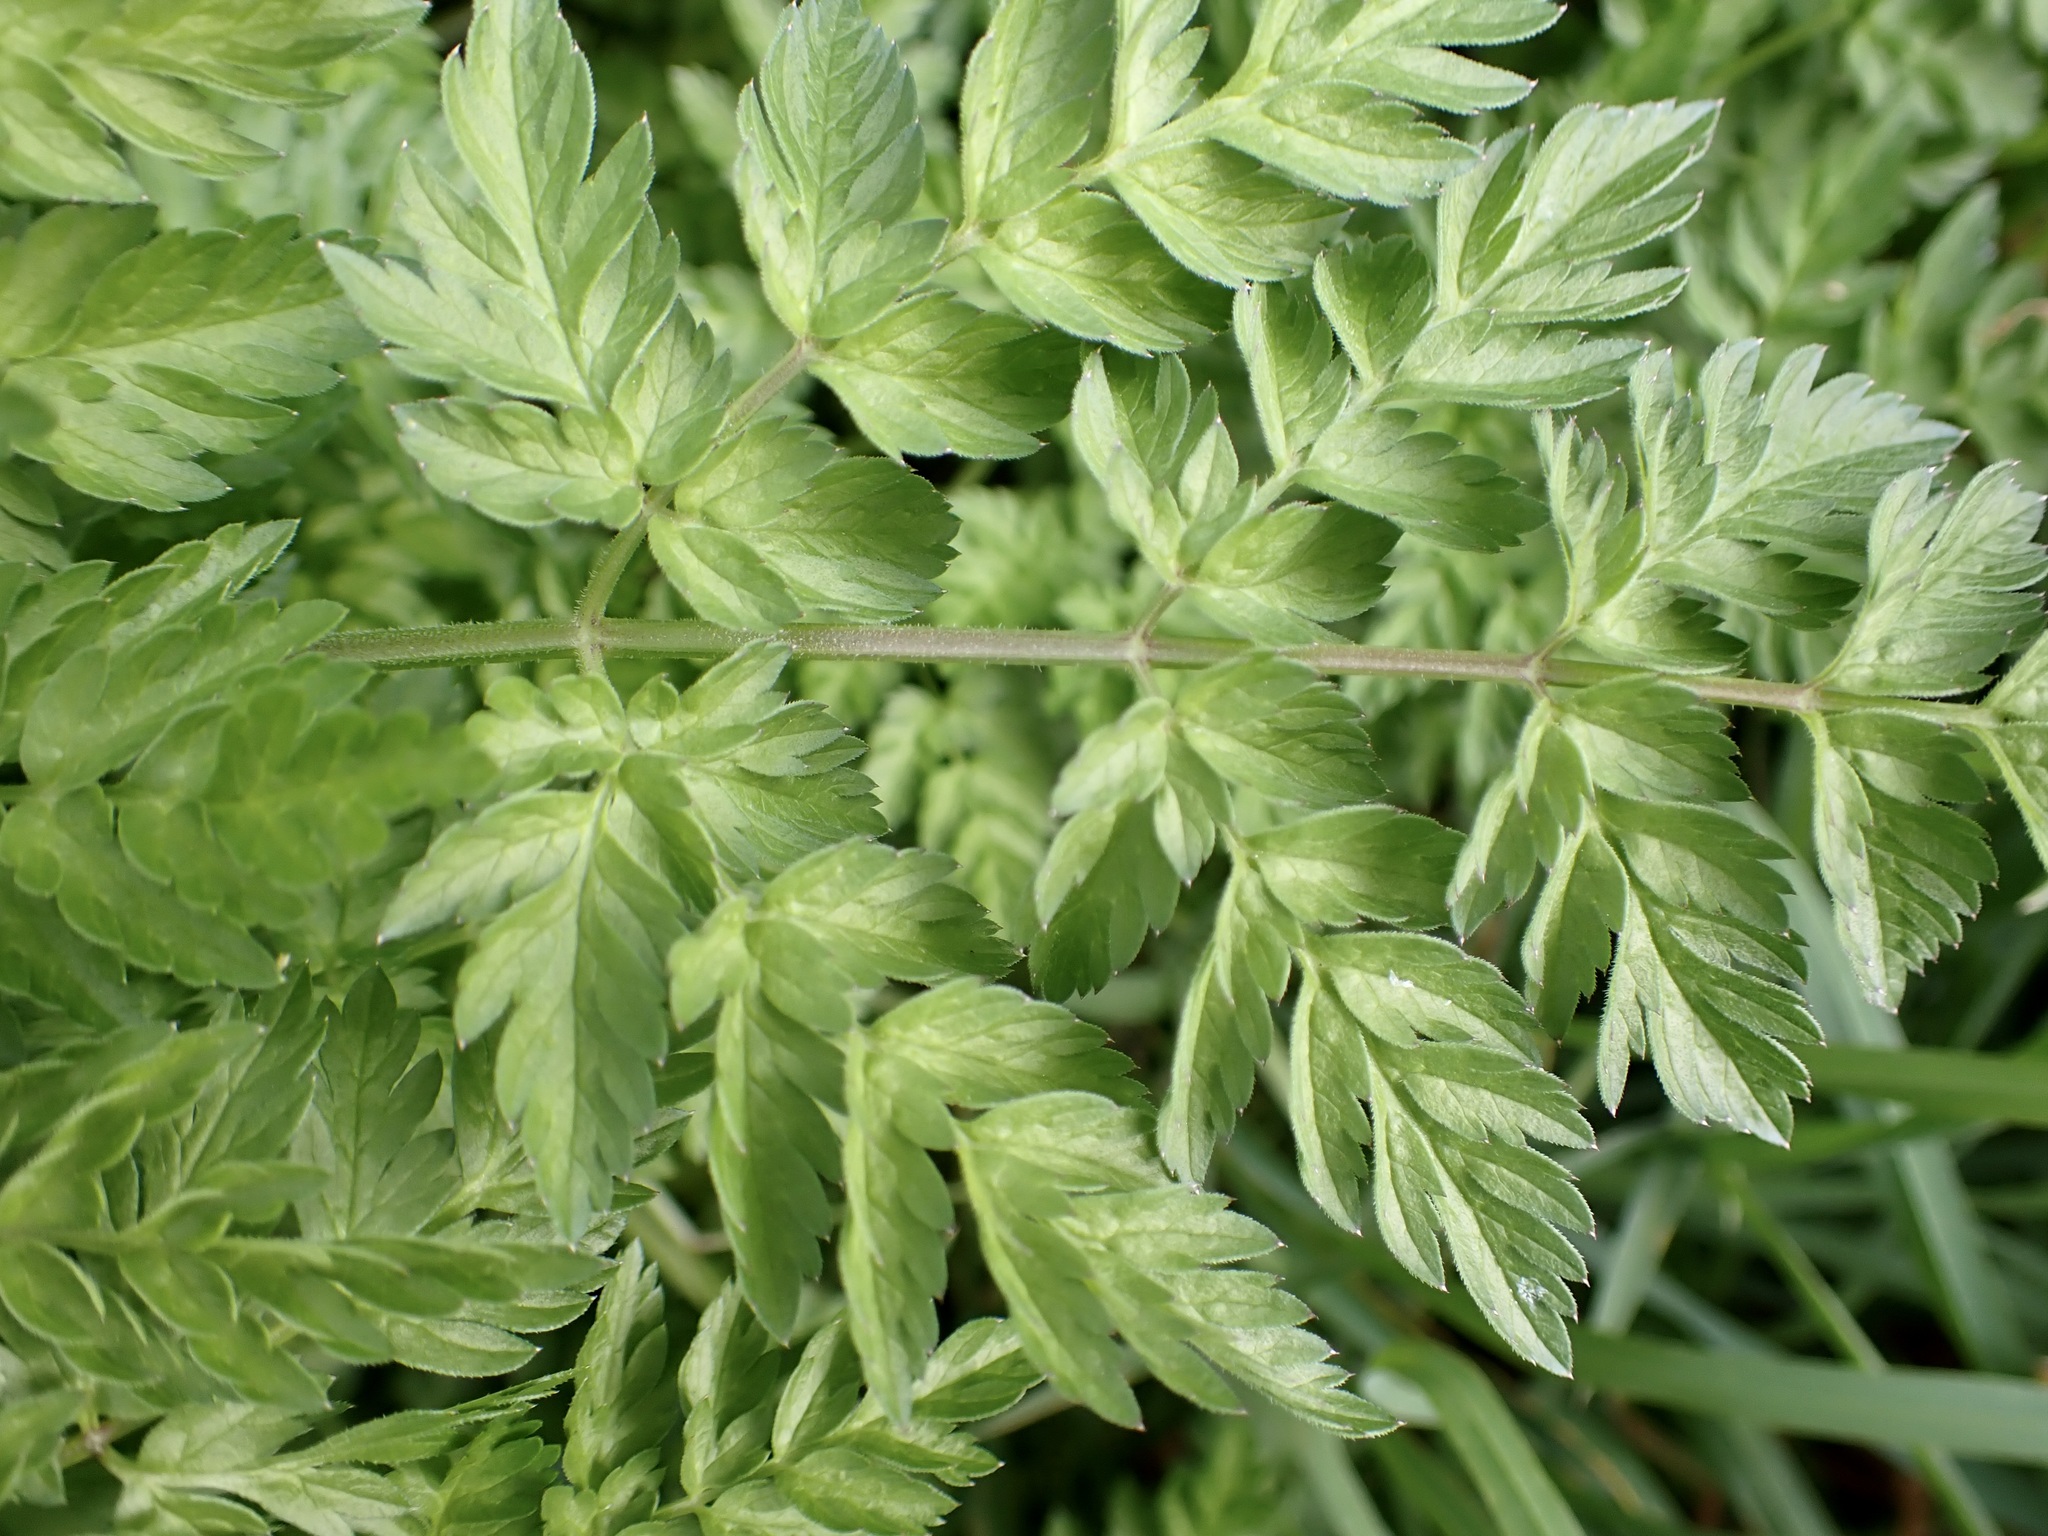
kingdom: Plantae
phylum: Tracheophyta
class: Magnoliopsida
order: Apiales
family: Apiaceae
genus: Anthriscus
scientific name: Anthriscus sylvestris
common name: Cow parsley
